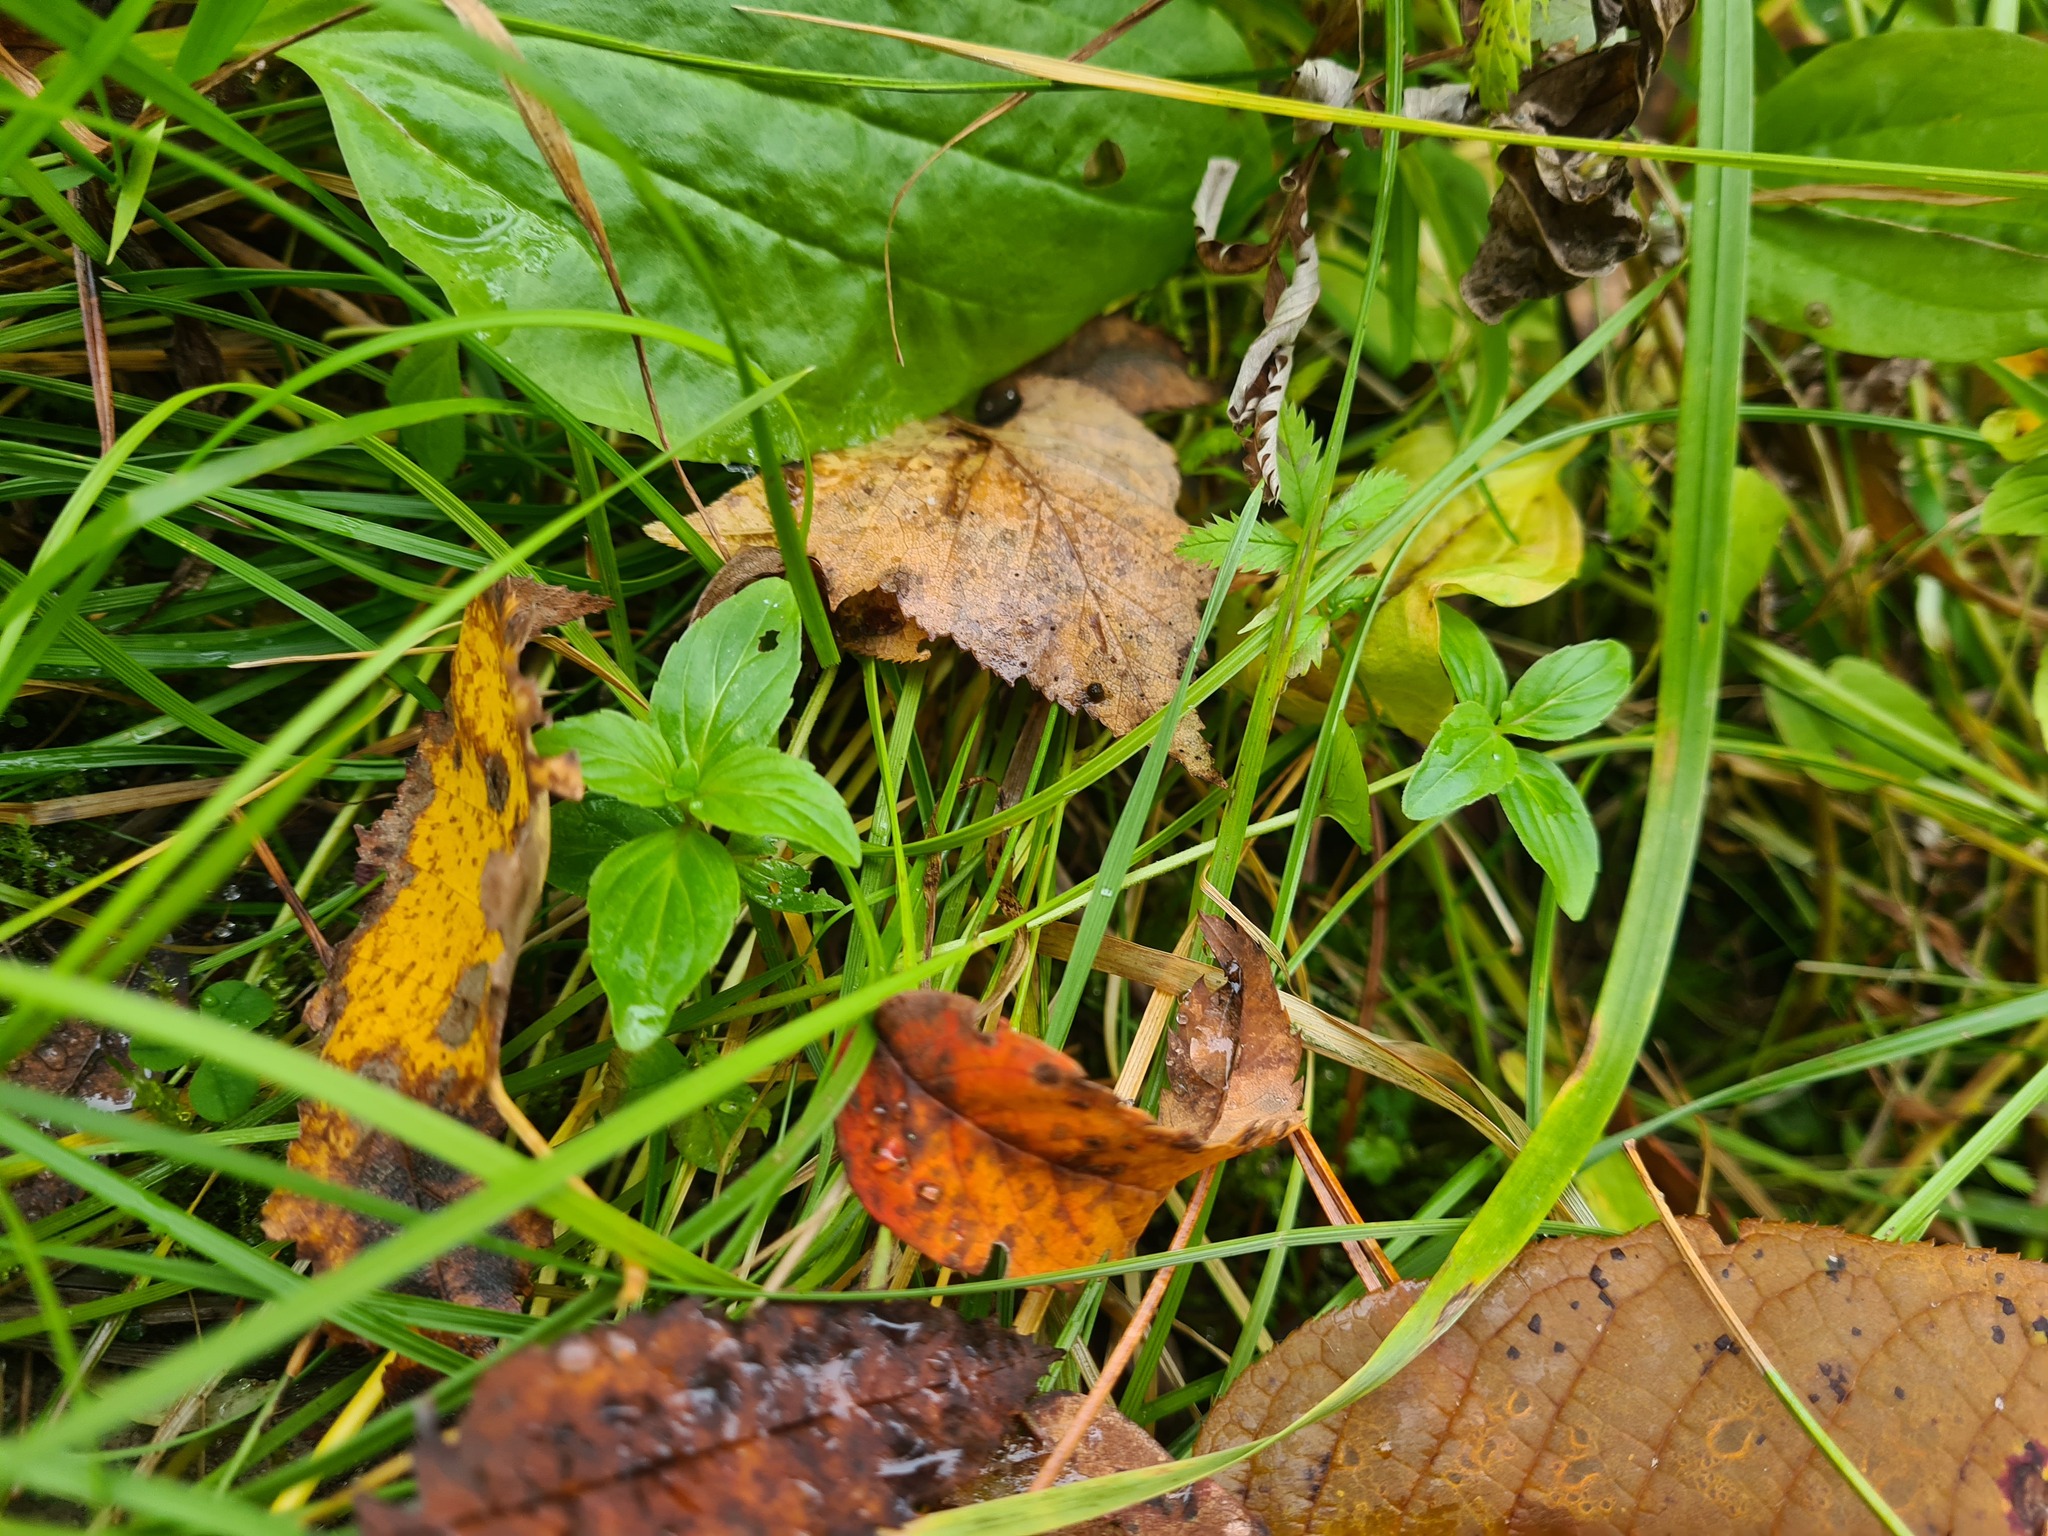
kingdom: Plantae
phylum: Tracheophyta
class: Magnoliopsida
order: Lamiales
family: Lamiaceae
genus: Mentha
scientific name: Mentha arvensis
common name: Corn mint
